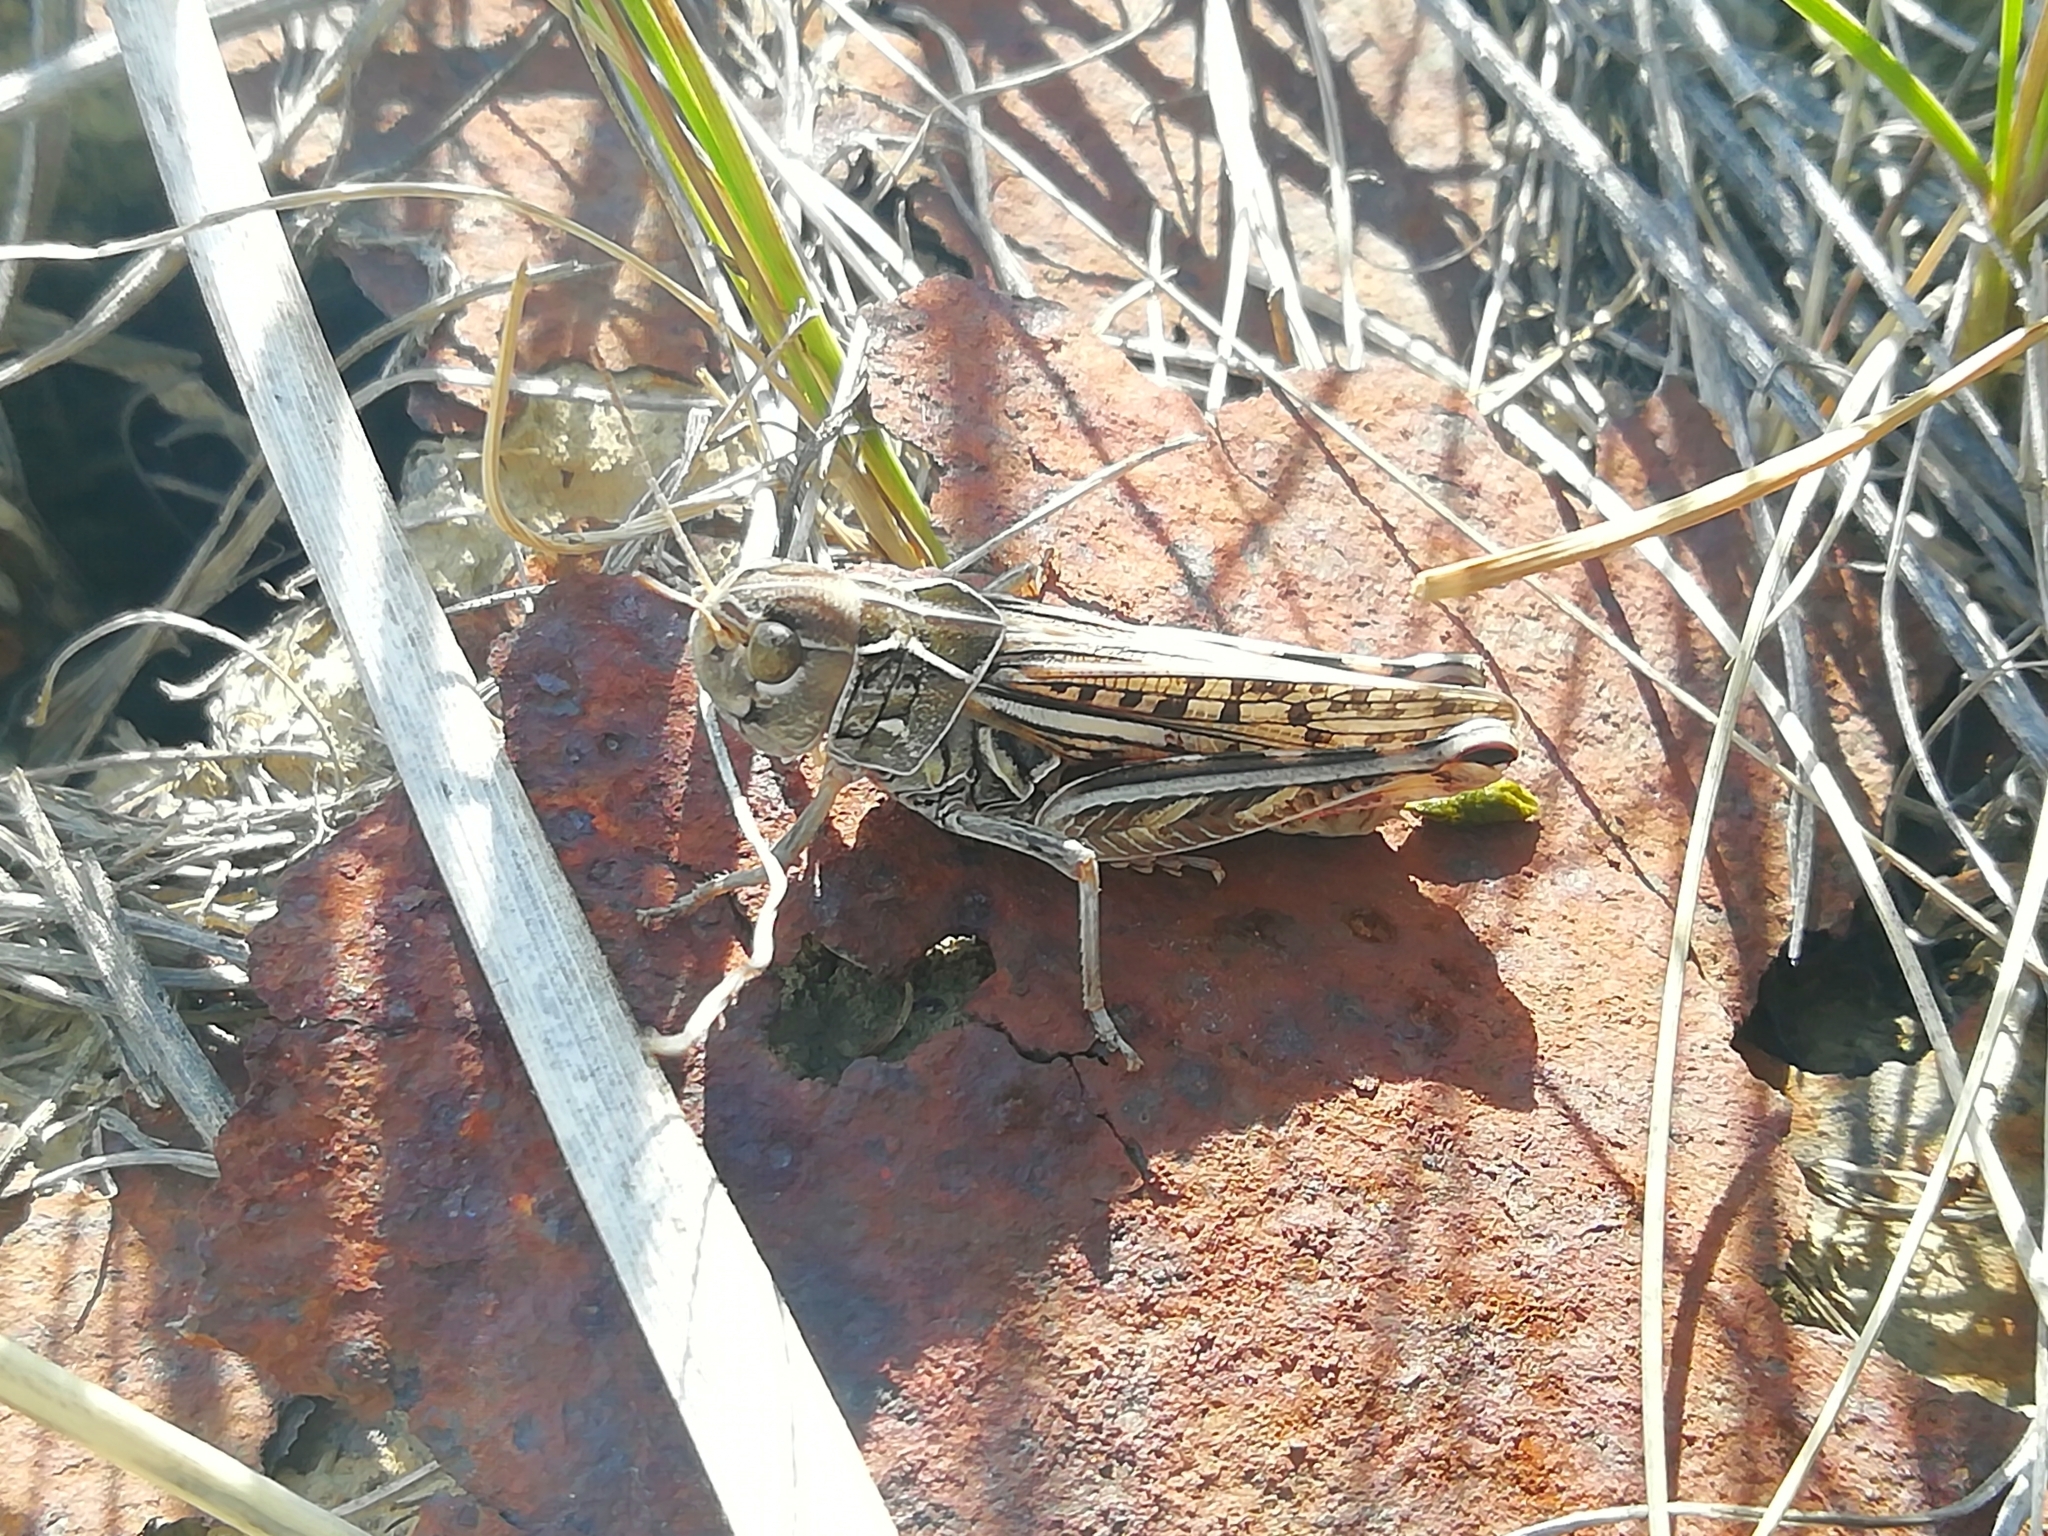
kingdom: Animalia
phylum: Arthropoda
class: Insecta
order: Orthoptera
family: Acrididae
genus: Arcyptera
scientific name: Arcyptera microptera
